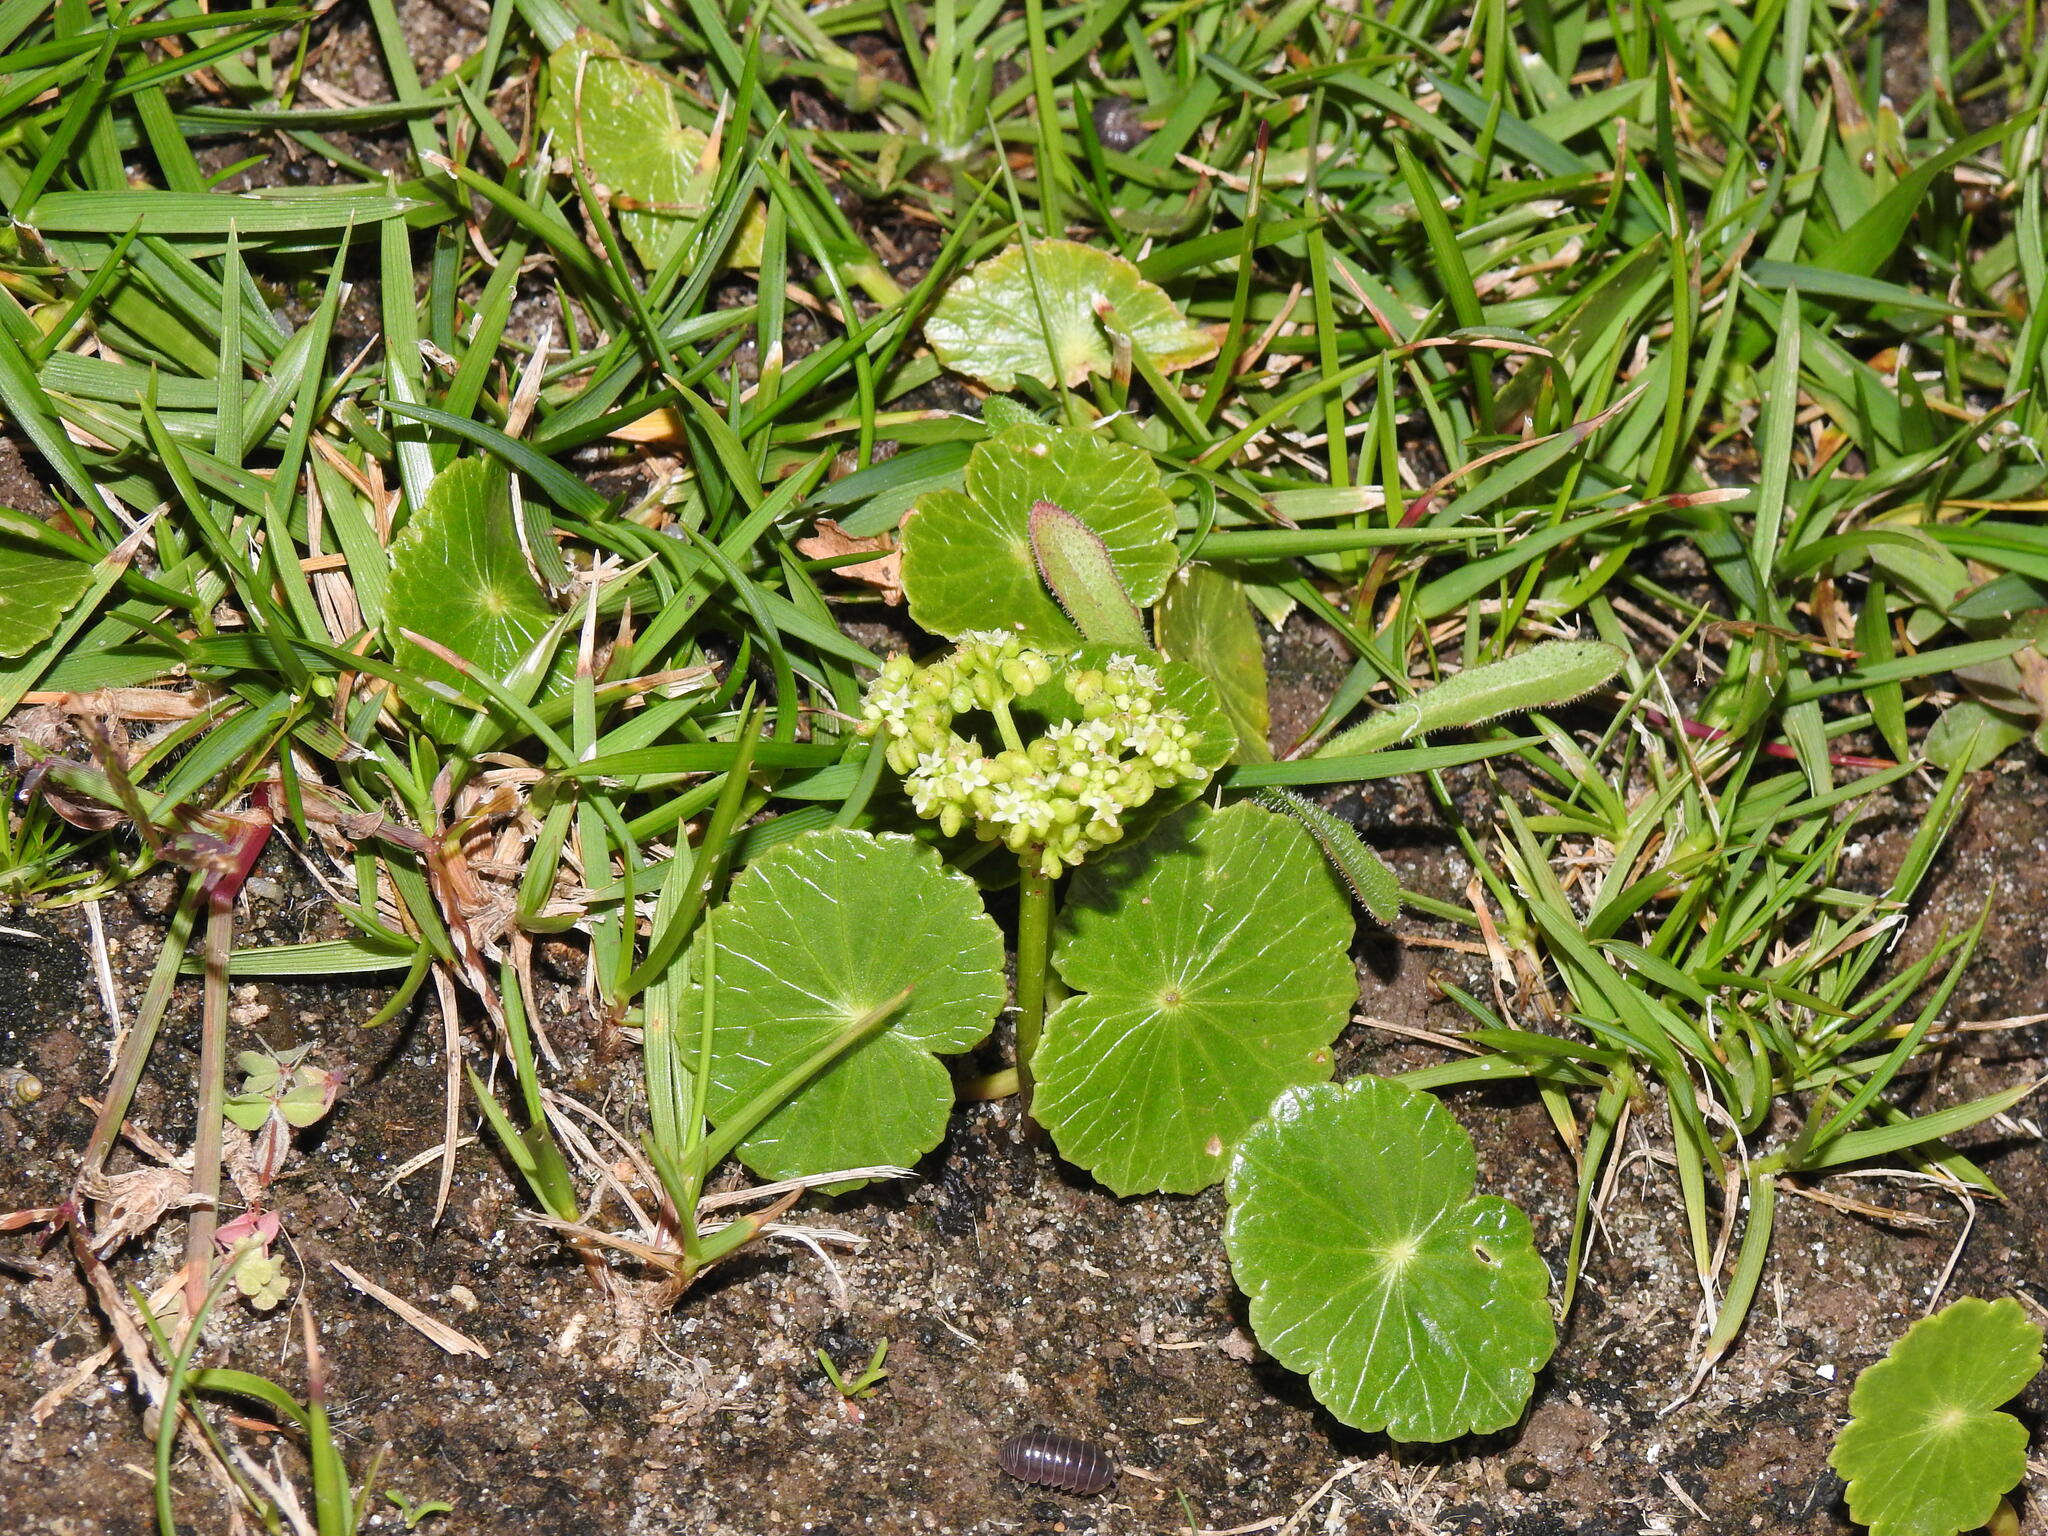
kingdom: Plantae
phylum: Tracheophyta
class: Magnoliopsida
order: Apiales
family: Araliaceae
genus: Hydrocotyle
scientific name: Hydrocotyle bonariensis
